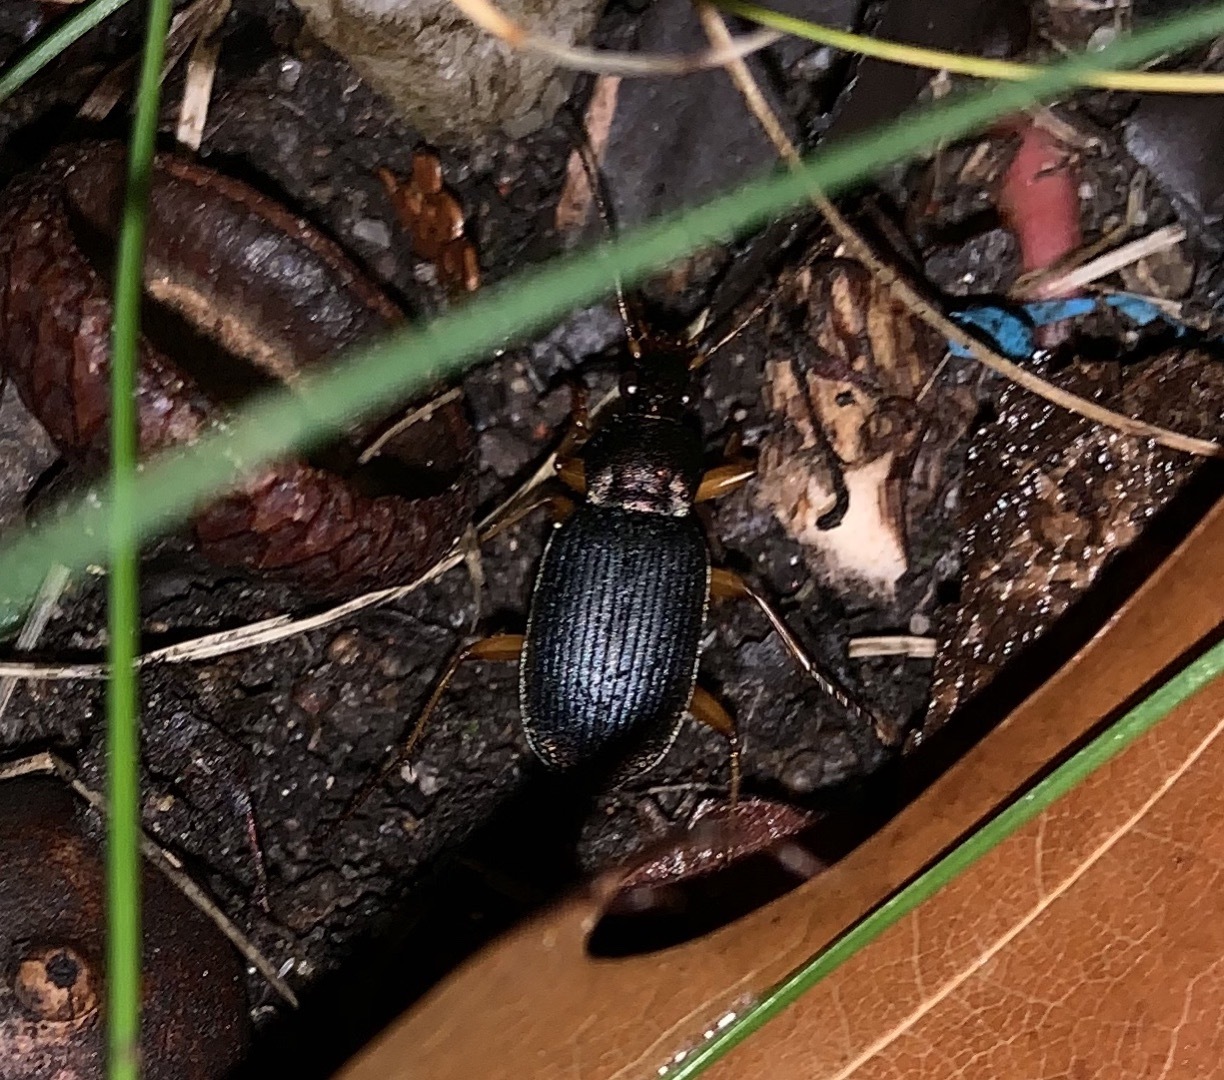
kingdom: Animalia
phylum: Arthropoda
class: Insecta
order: Coleoptera
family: Carabidae
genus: Chlaenius
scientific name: Chlaenius aestivus
